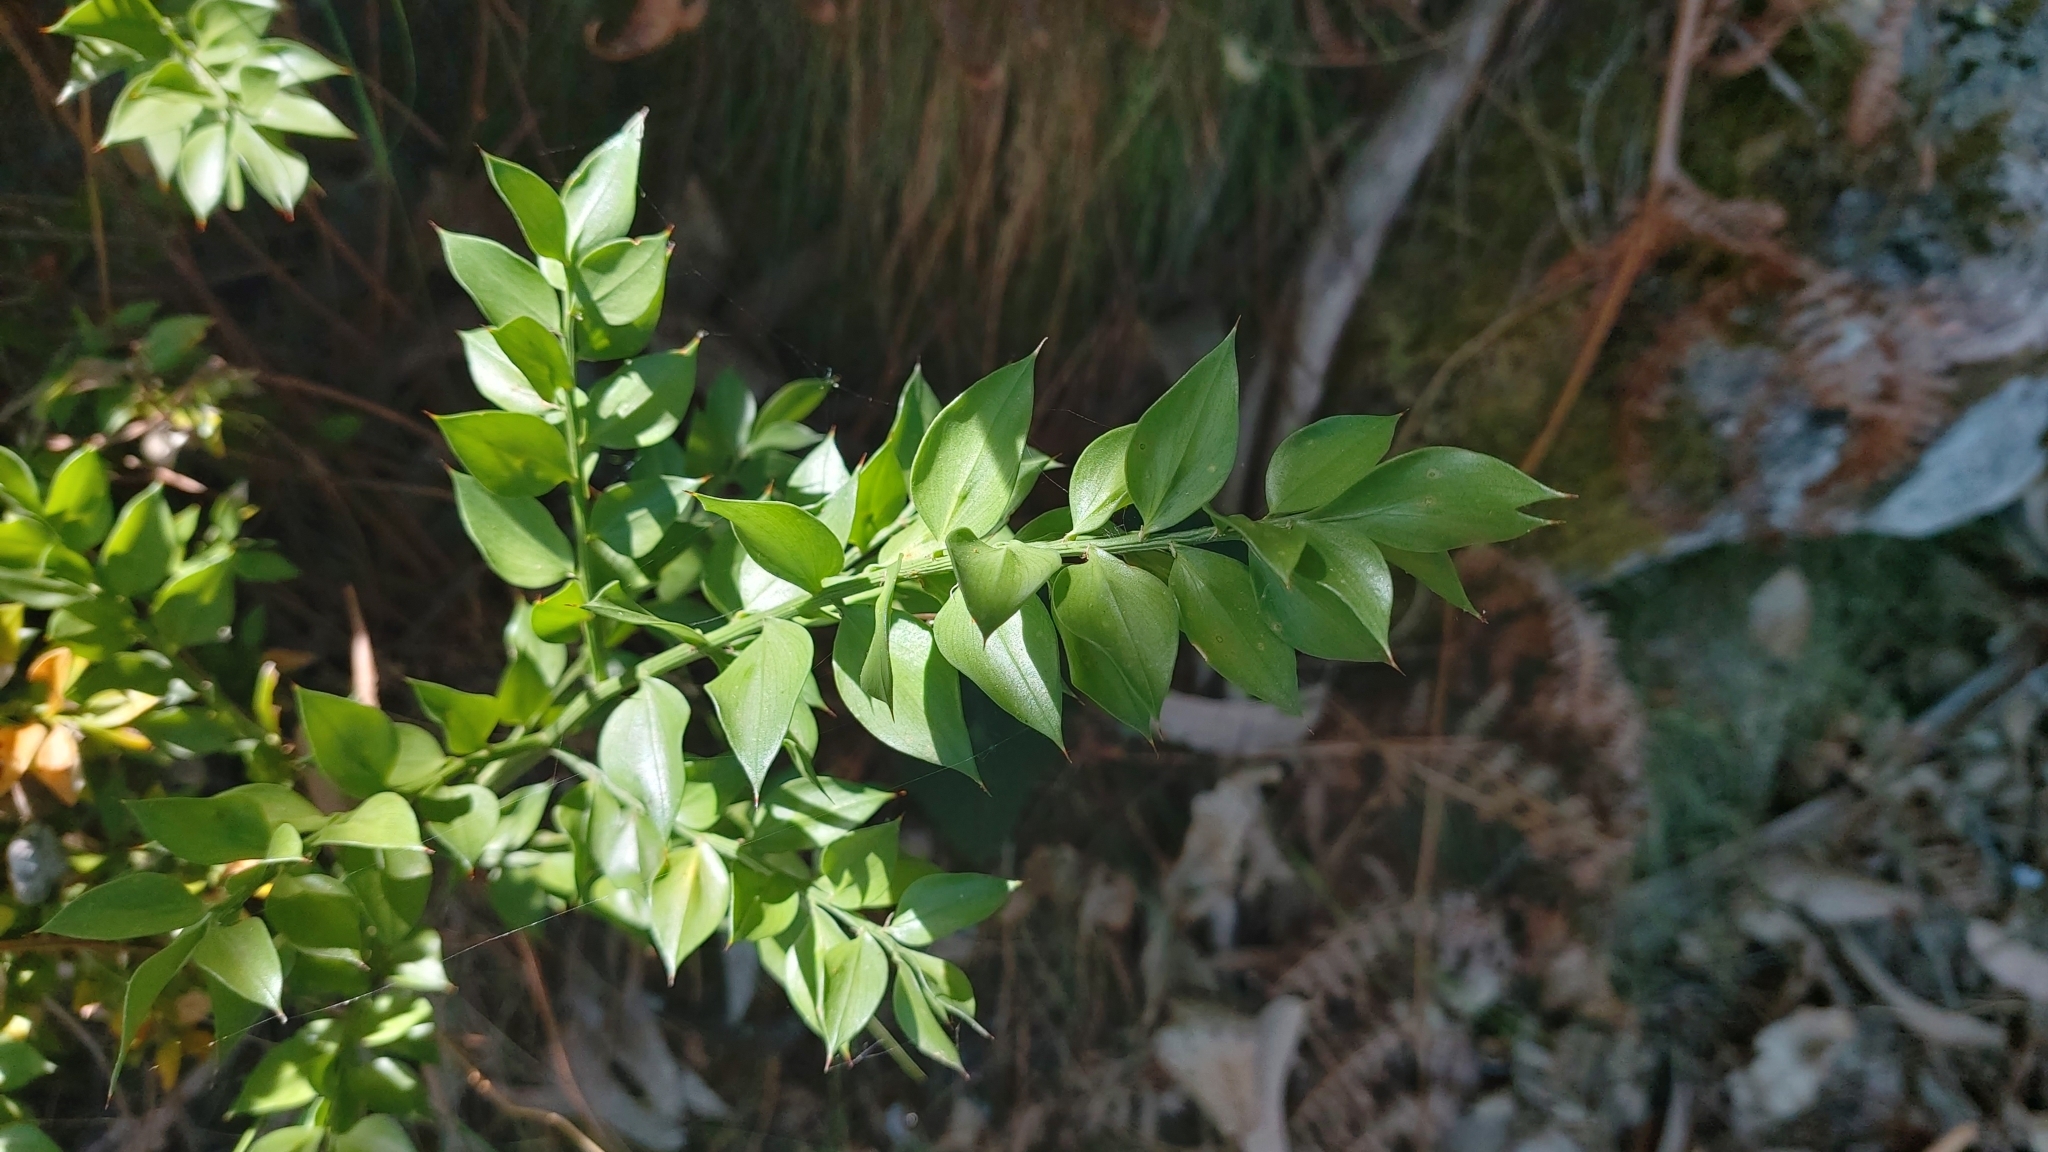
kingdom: Plantae
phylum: Tracheophyta
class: Liliopsida
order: Asparagales
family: Asparagaceae
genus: Ruscus
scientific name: Ruscus aculeatus
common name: Butcher's-broom
